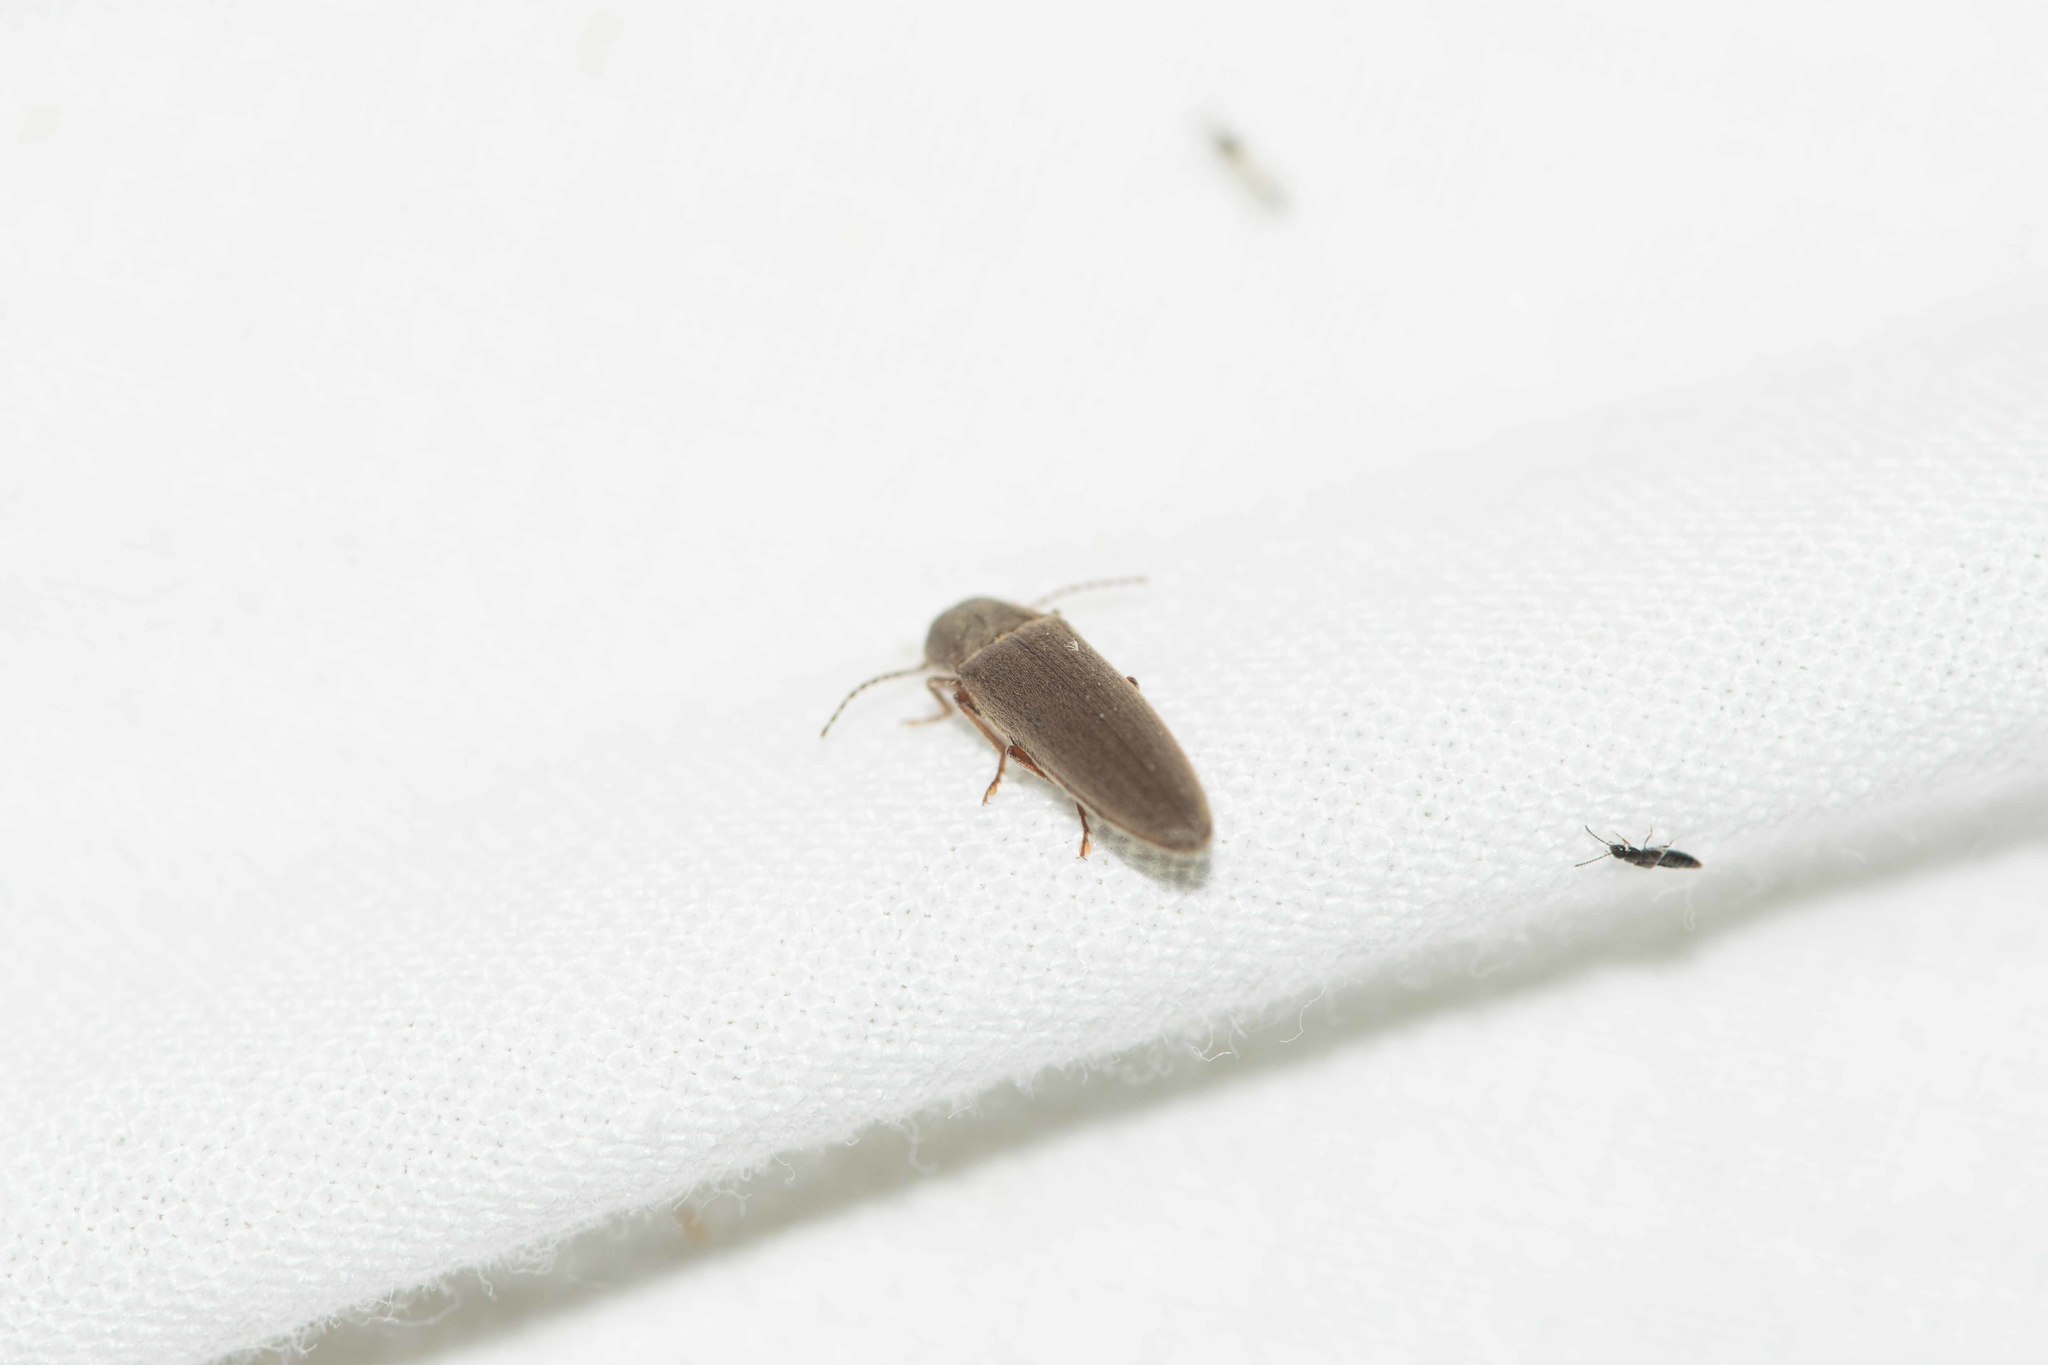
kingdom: Animalia
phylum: Arthropoda
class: Insecta
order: Coleoptera
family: Elateridae
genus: Synaptus
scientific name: Synaptus filiformis
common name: Hairy click beetle
